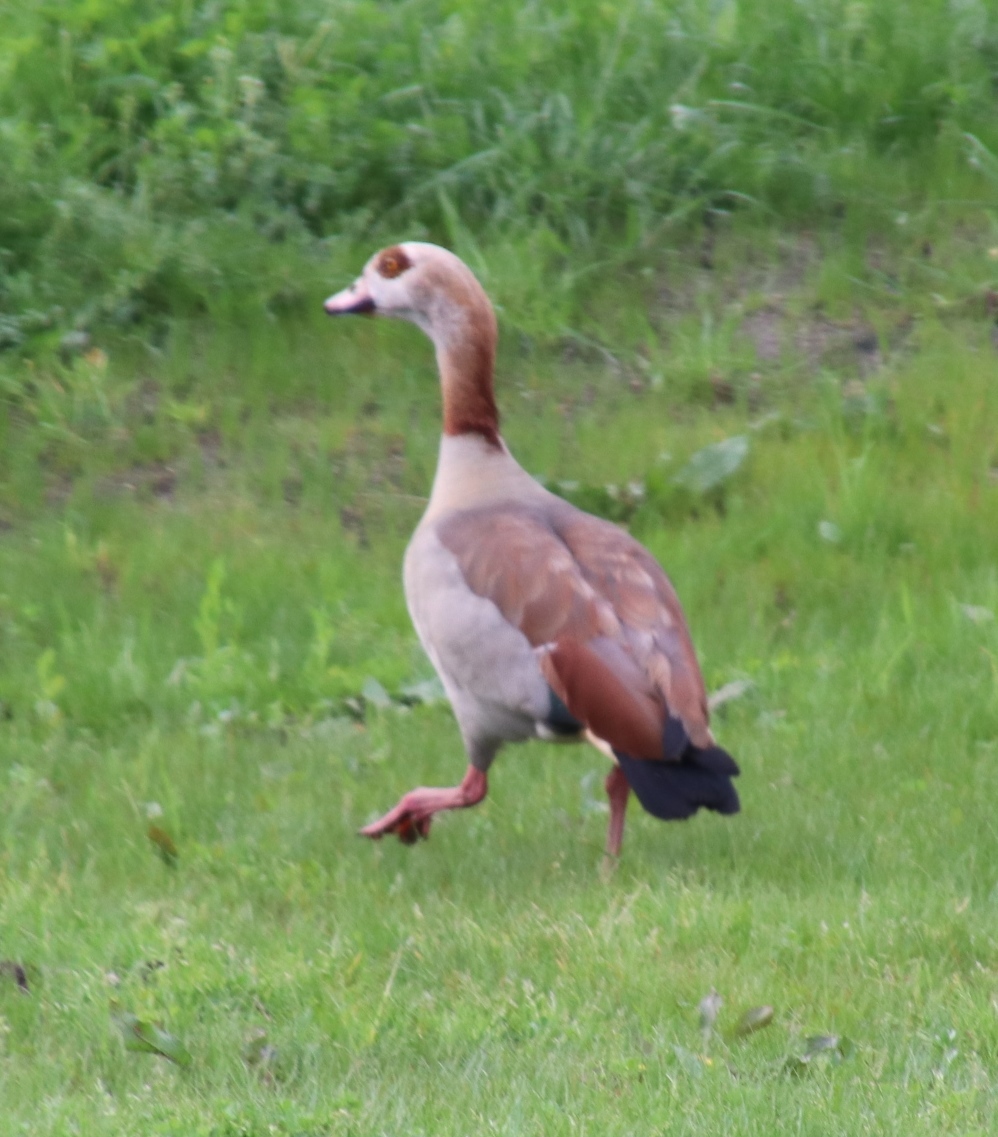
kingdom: Animalia
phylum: Chordata
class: Aves
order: Anseriformes
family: Anatidae
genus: Alopochen
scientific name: Alopochen aegyptiaca
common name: Egyptian goose
